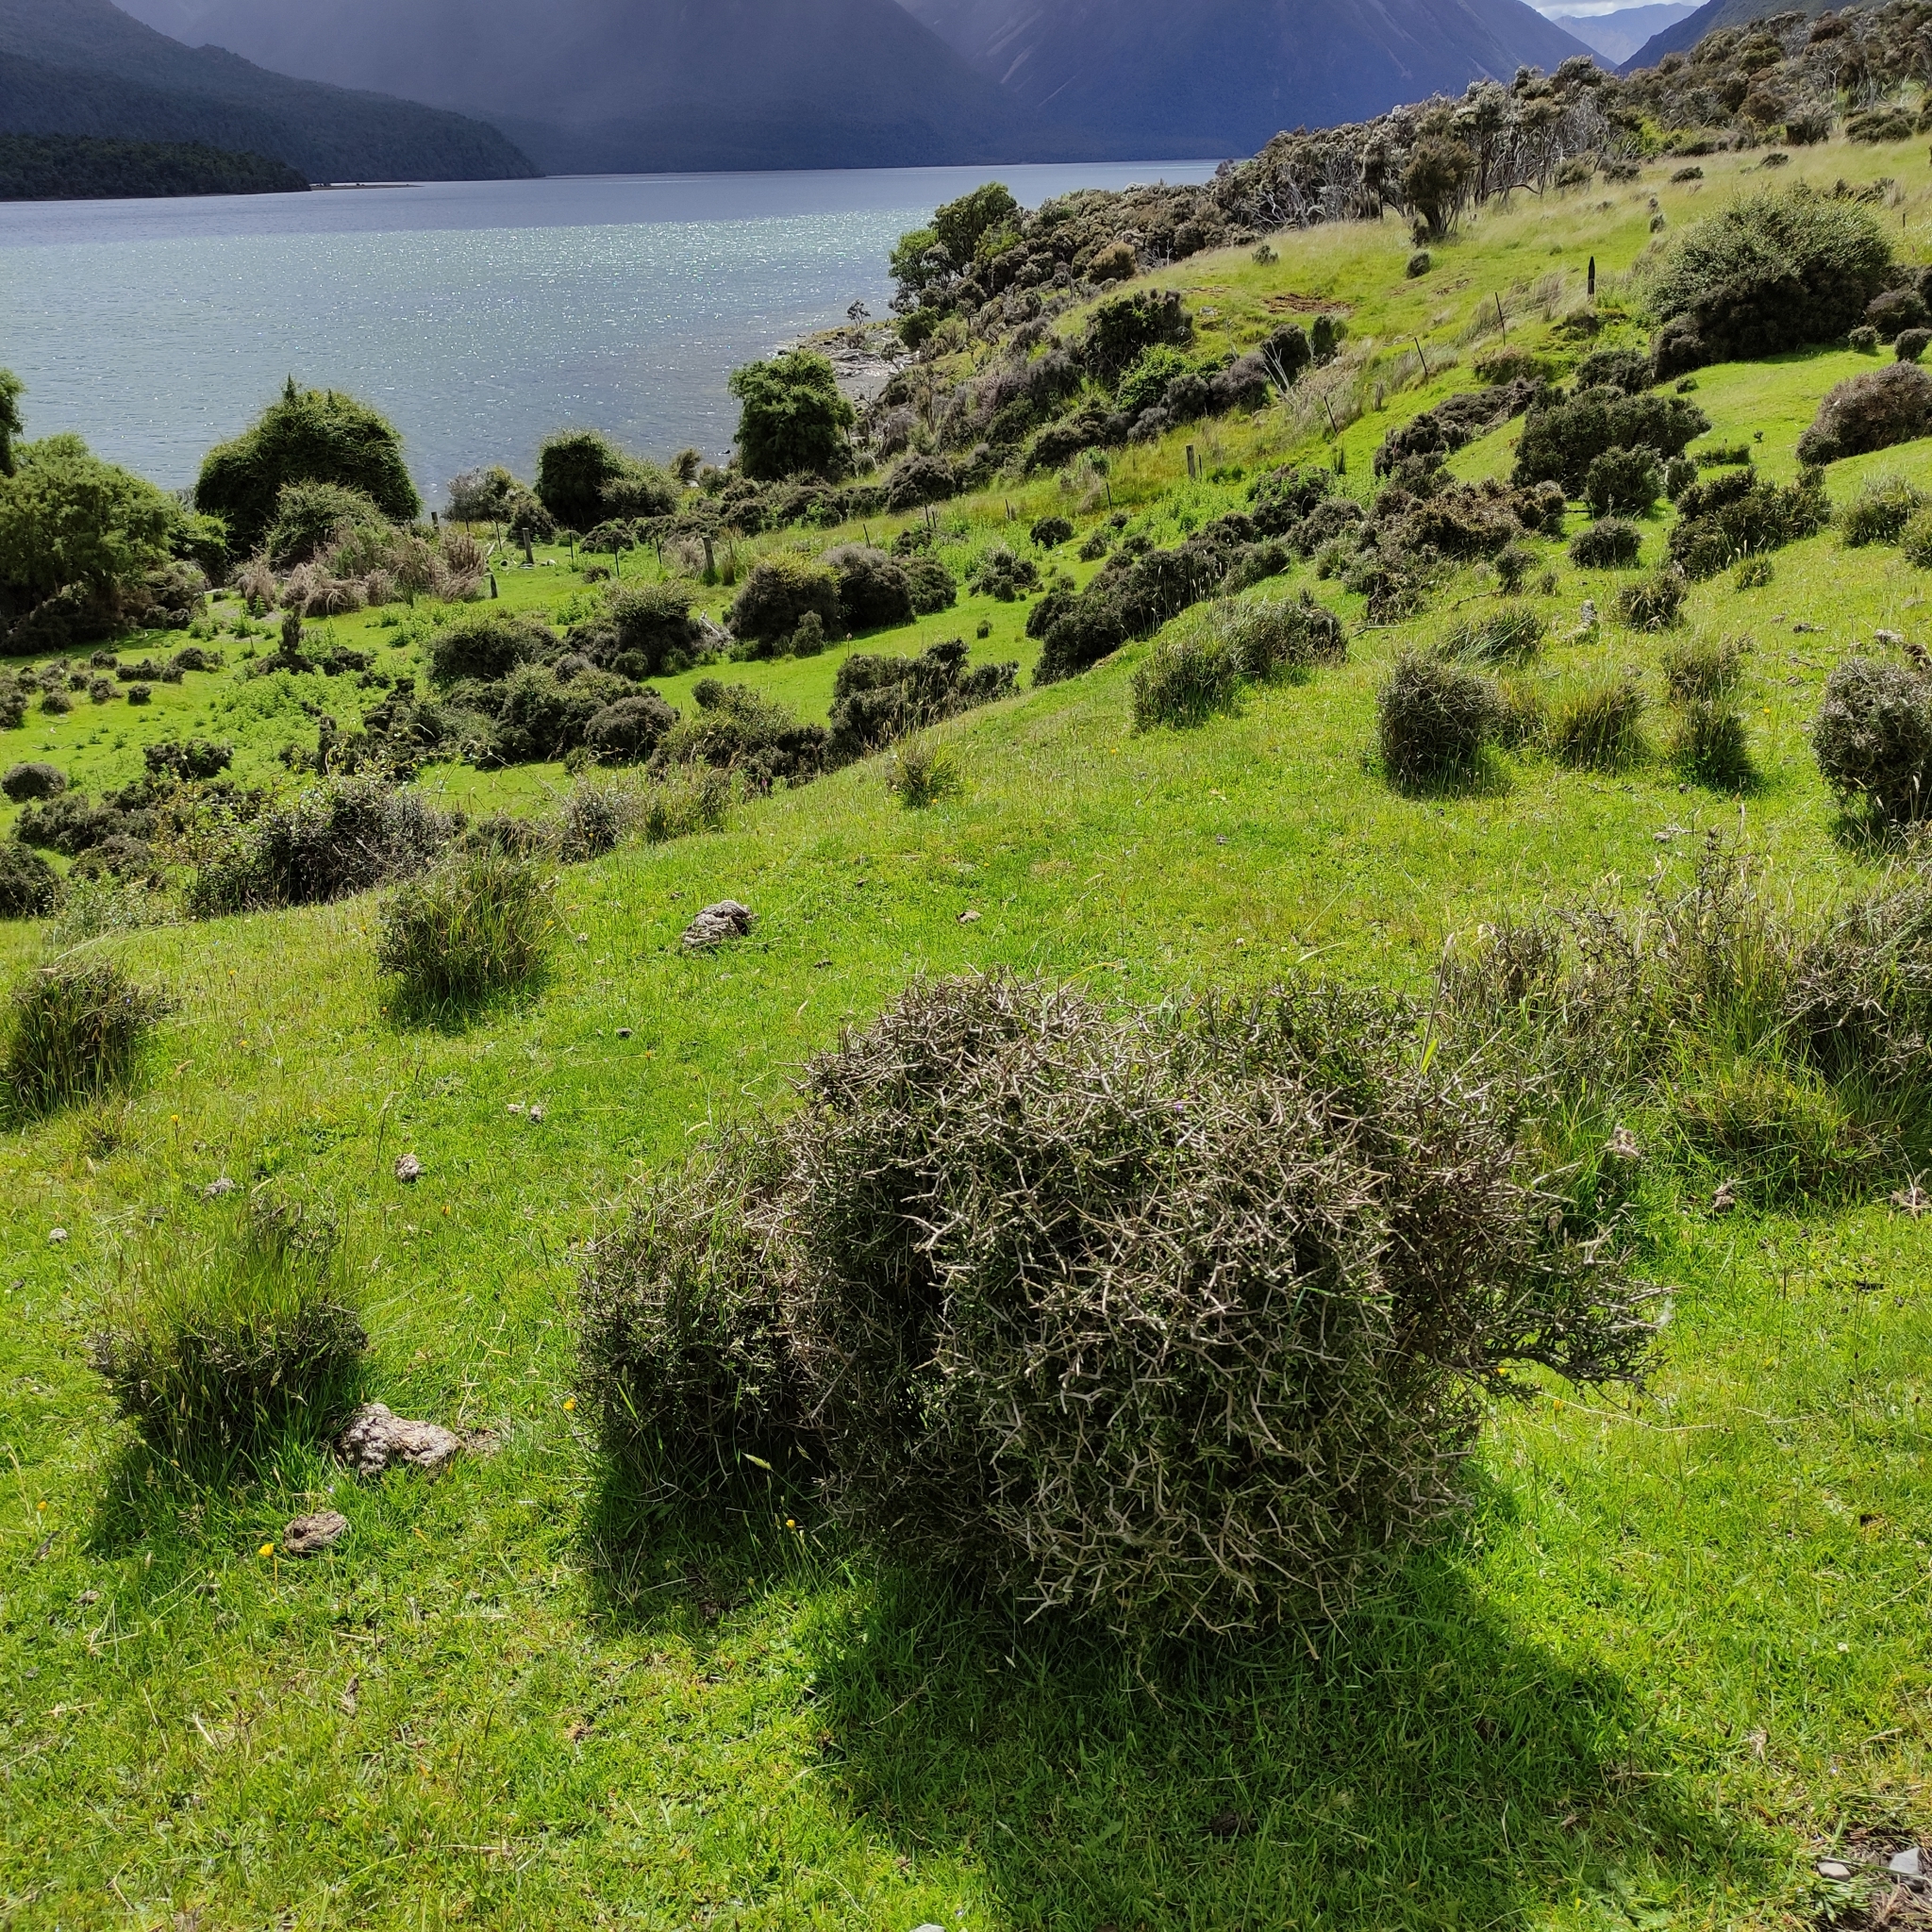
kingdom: Plantae
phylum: Tracheophyta
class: Magnoliopsida
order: Malpighiales
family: Violaceae
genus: Melicytus
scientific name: Melicytus alpinus
